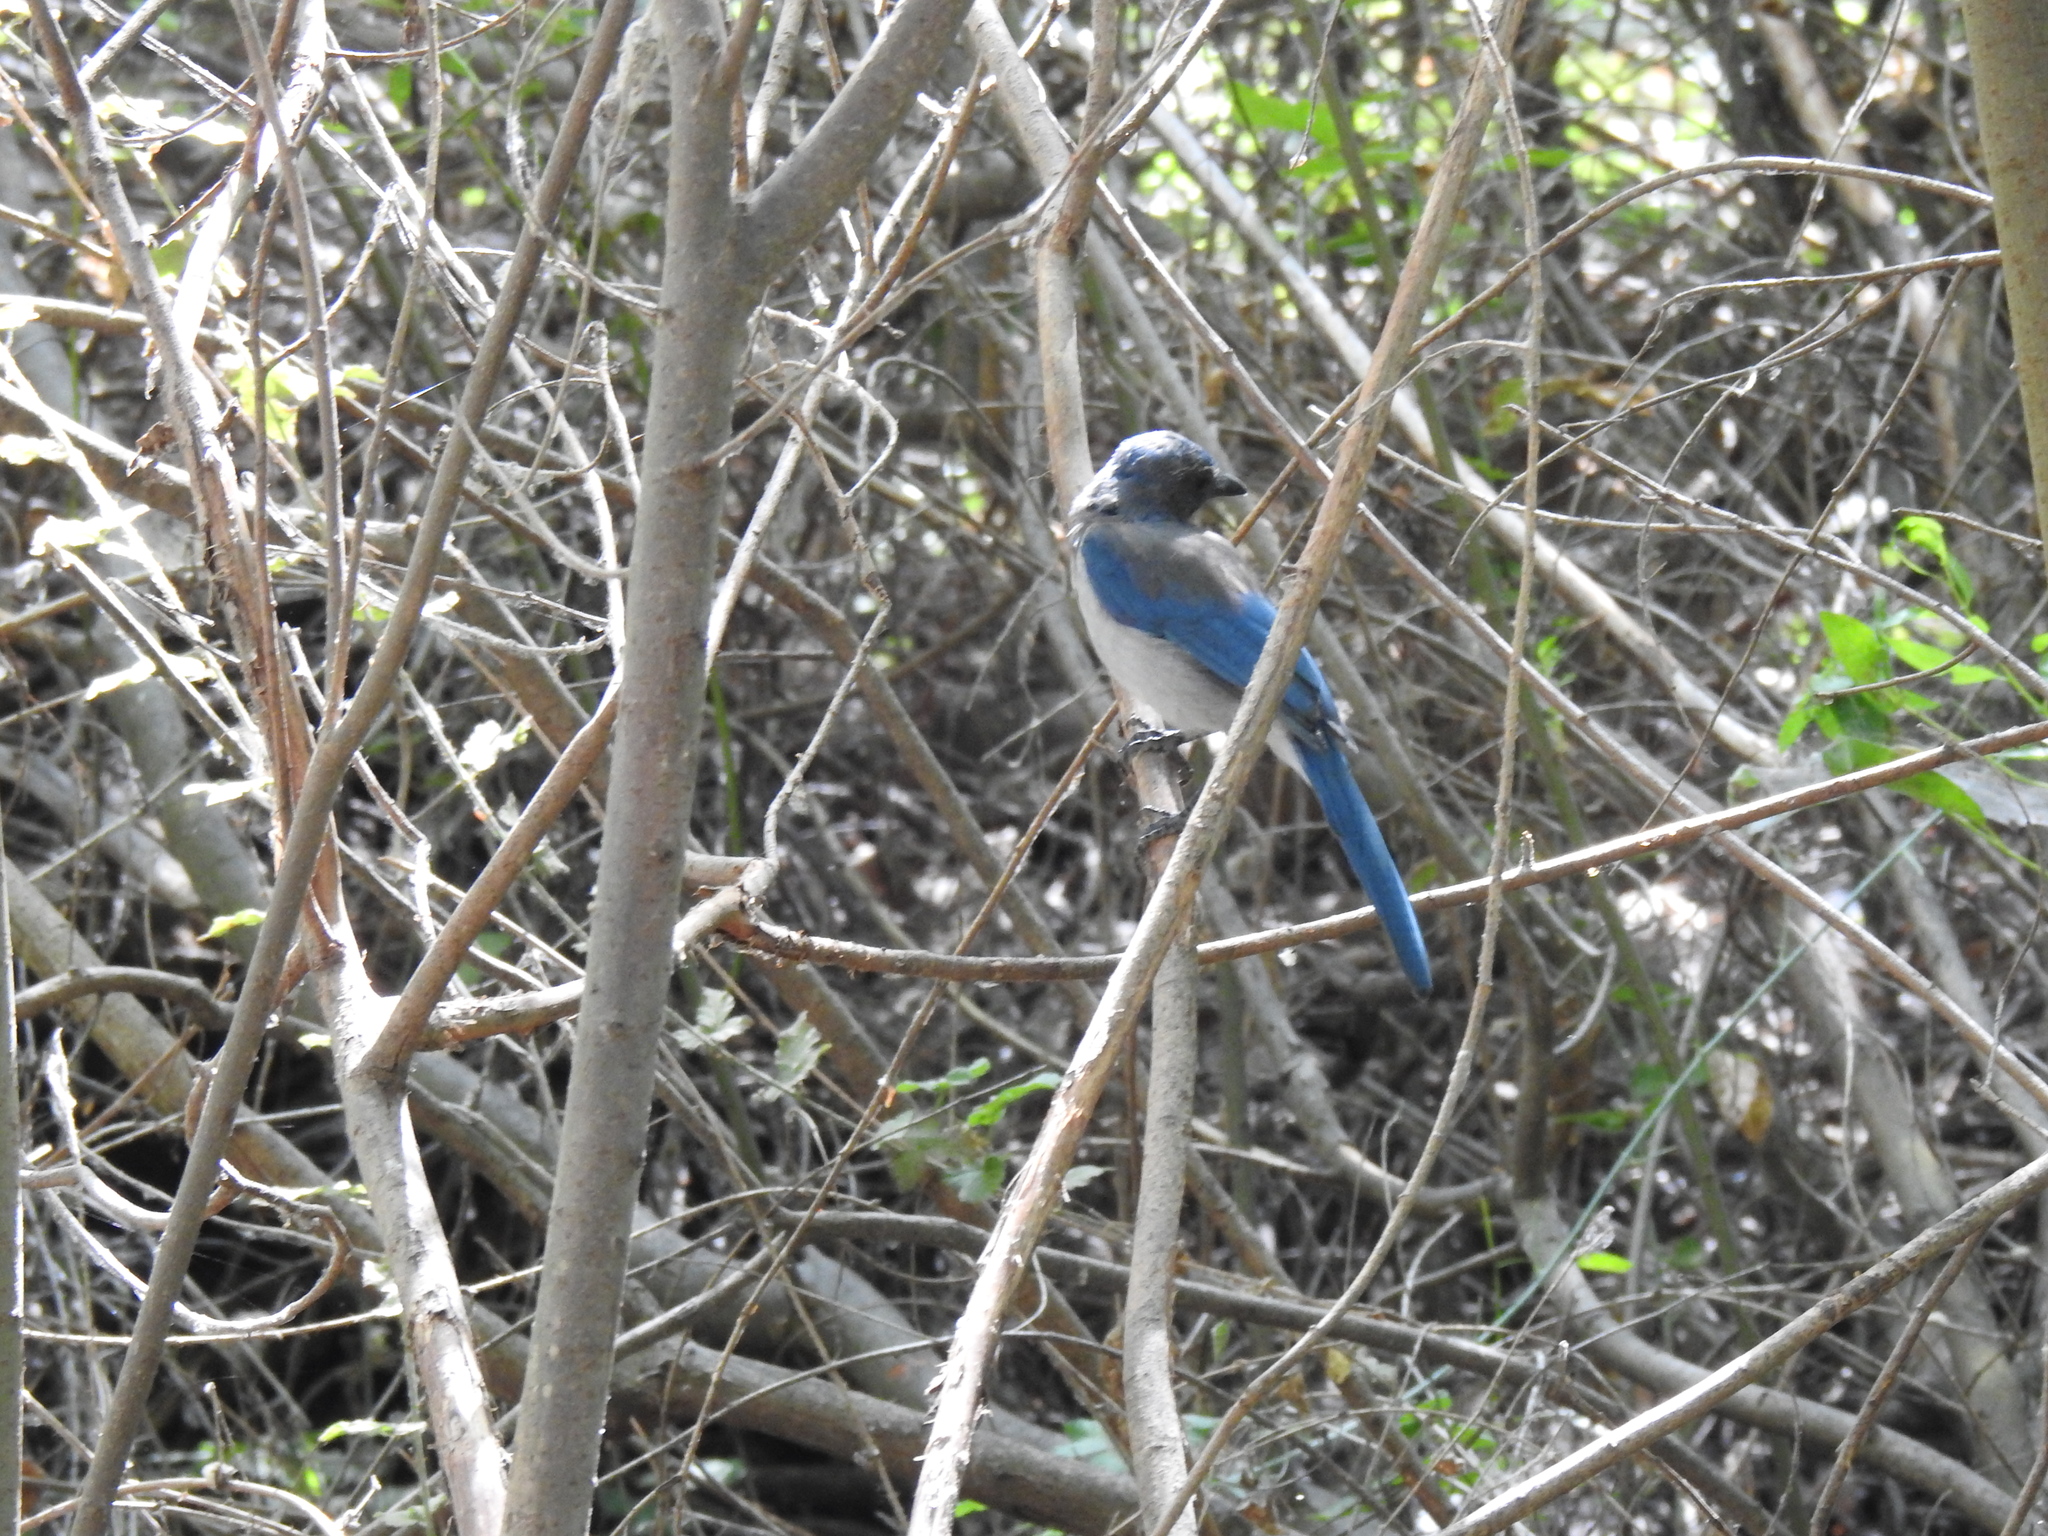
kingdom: Animalia
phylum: Chordata
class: Aves
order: Passeriformes
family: Corvidae
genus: Aphelocoma
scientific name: Aphelocoma californica
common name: California scrub-jay
